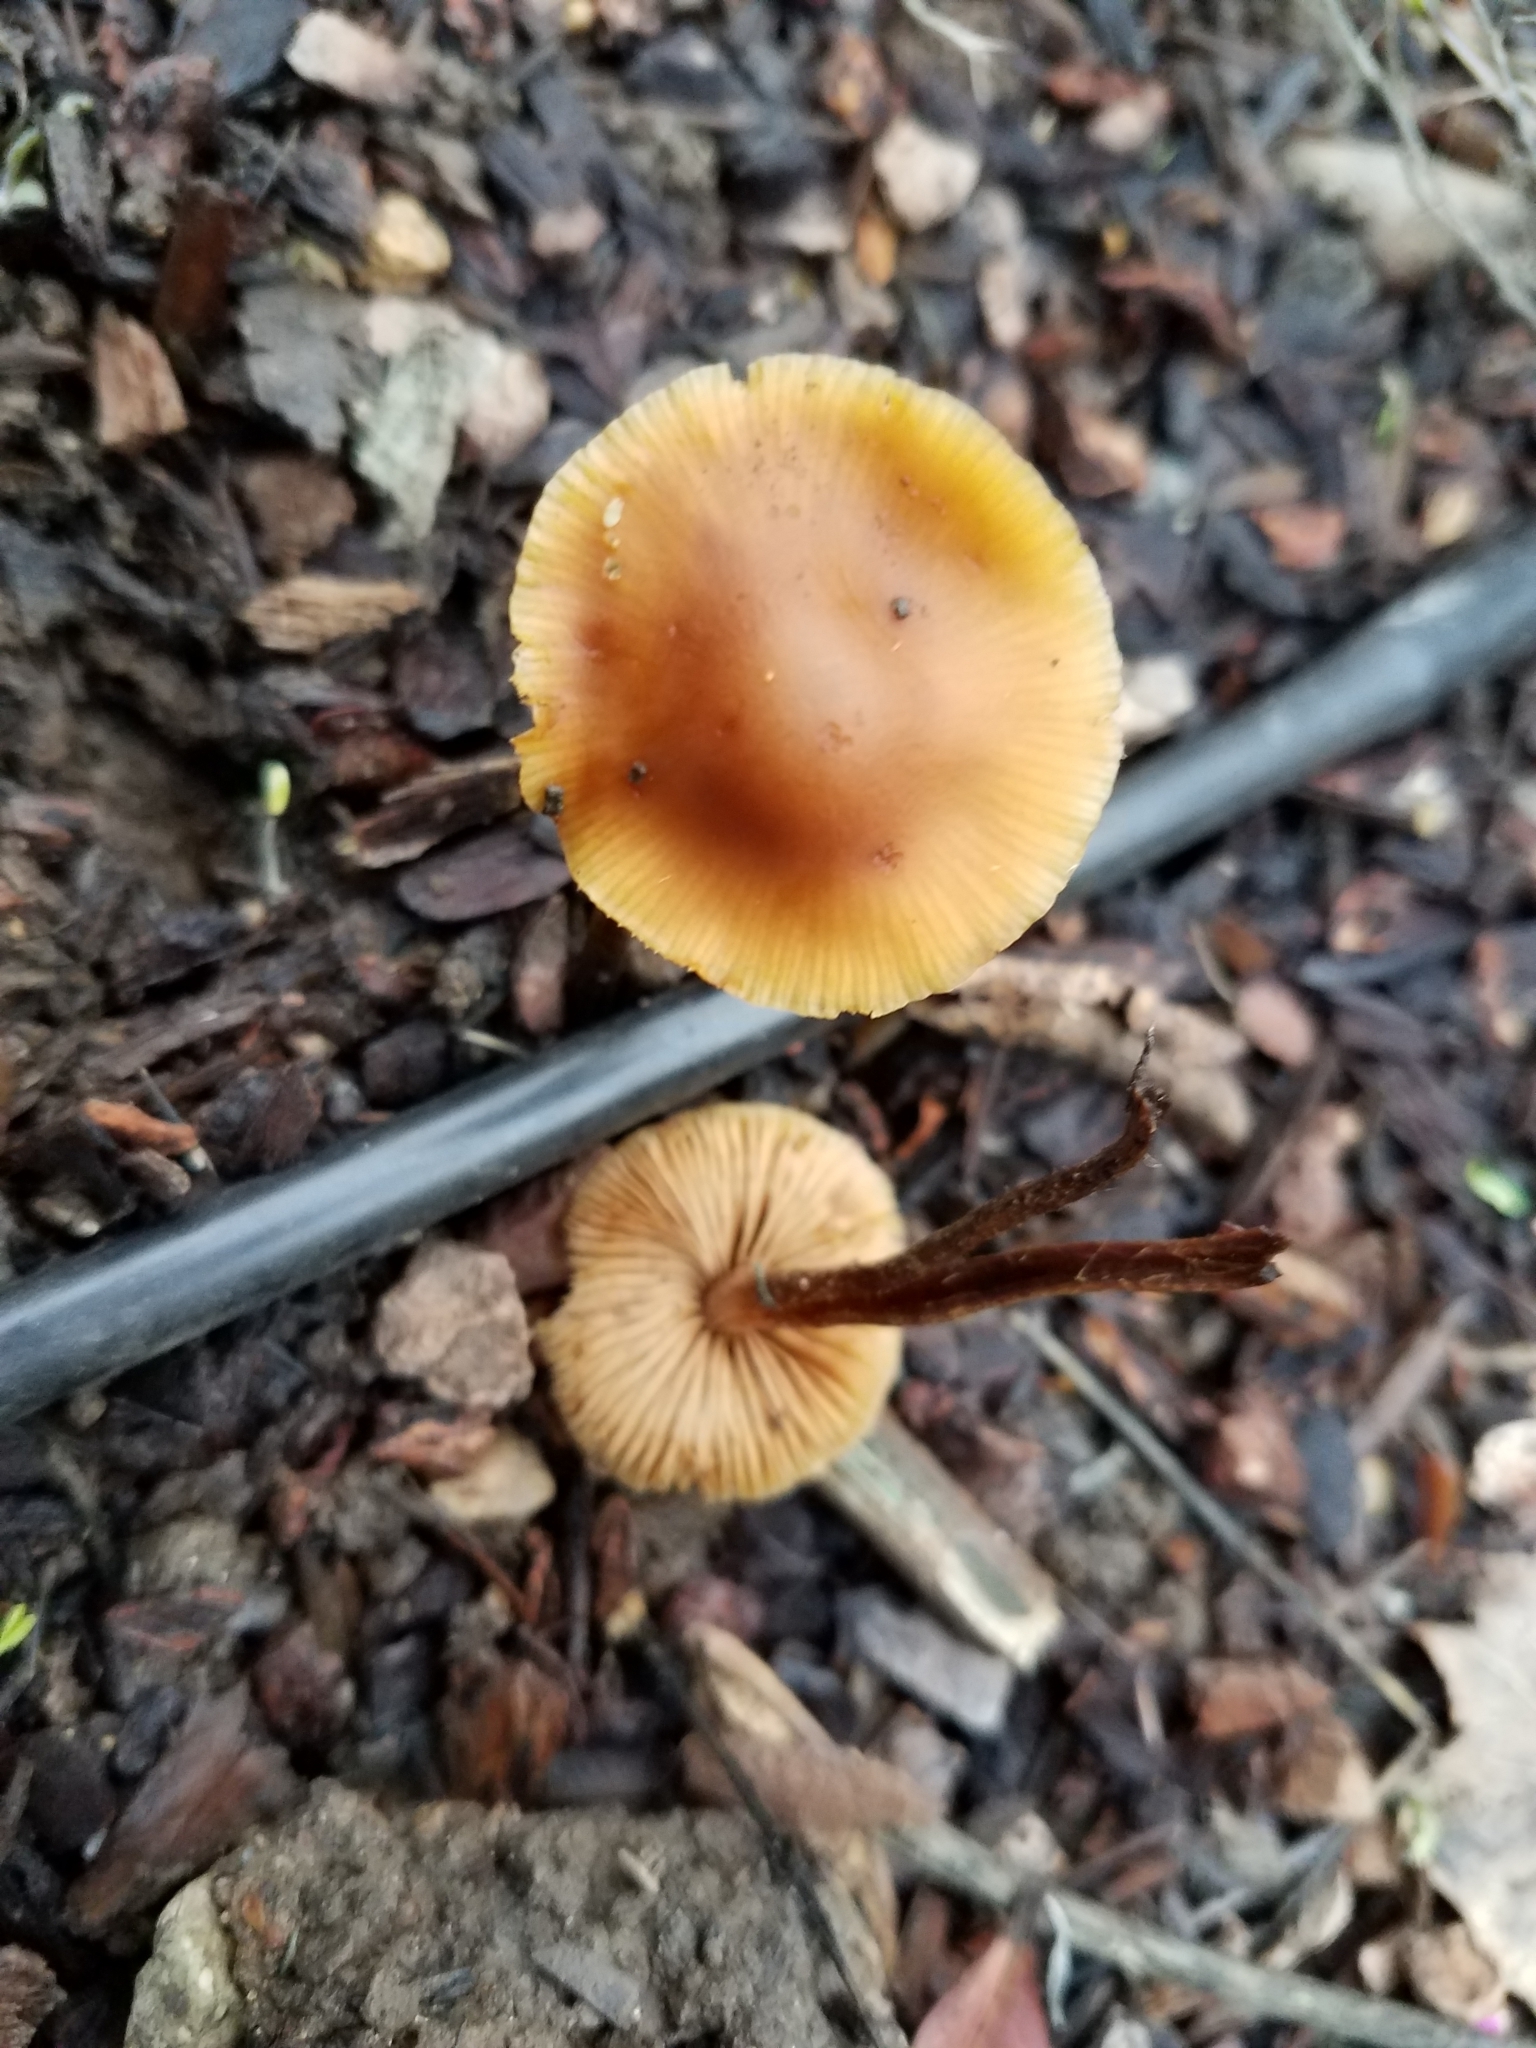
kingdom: Fungi
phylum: Basidiomycota
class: Agaricomycetes
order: Agaricales
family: Bolbitiaceae
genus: Conocybe
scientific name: Conocybe rugosa
